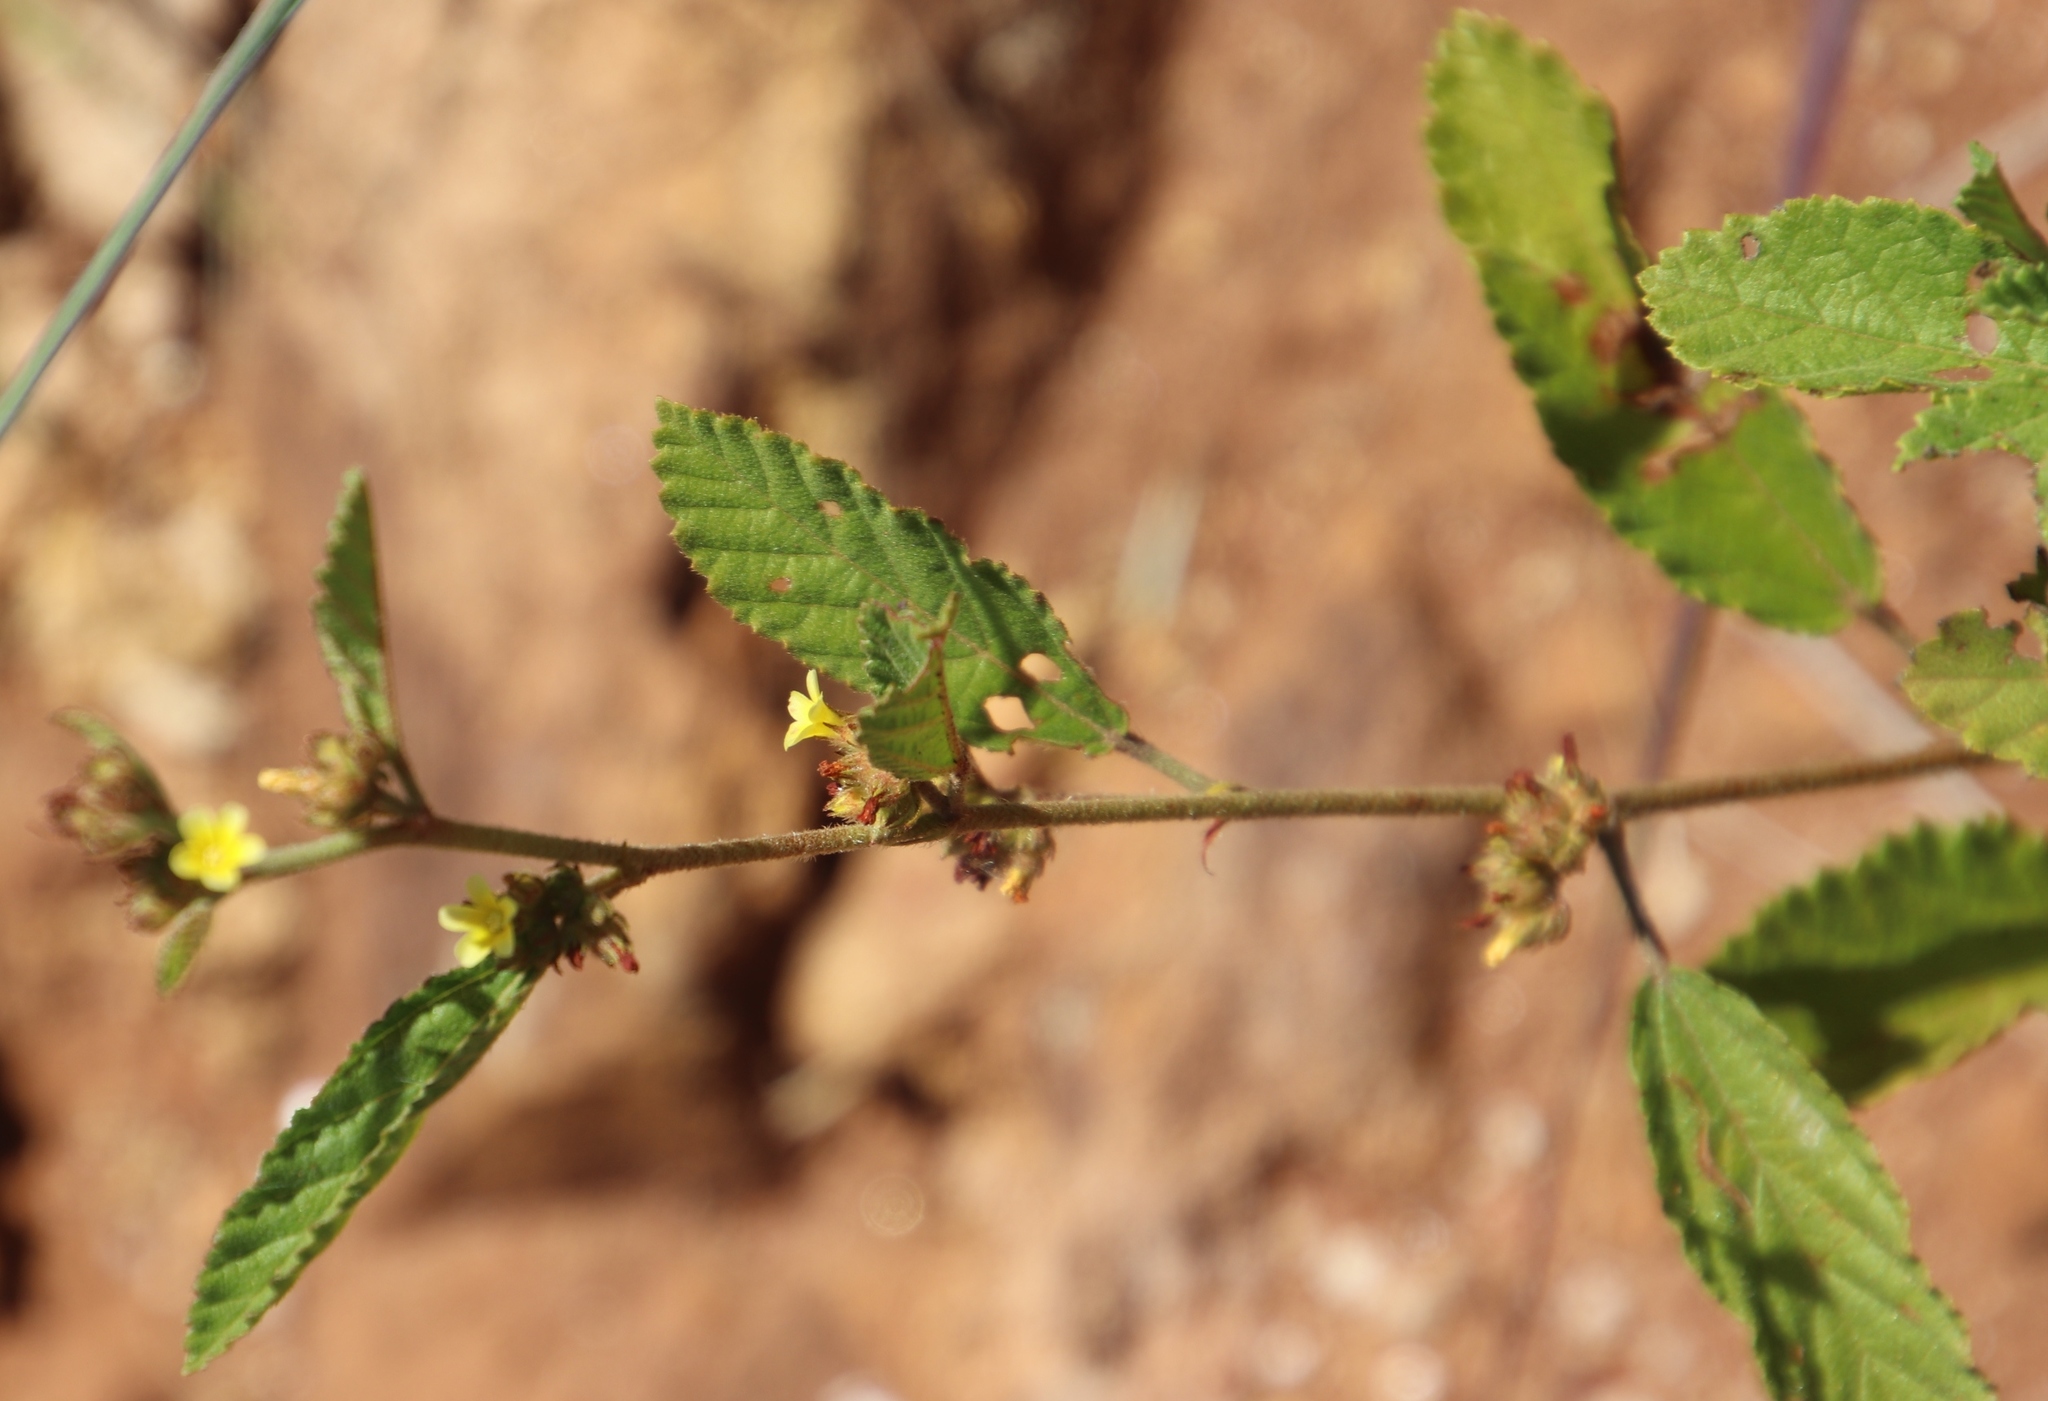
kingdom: Plantae
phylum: Tracheophyta
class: Magnoliopsida
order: Malvales
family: Malvaceae
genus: Waltheria
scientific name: Waltheria indica
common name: Leather-coat
